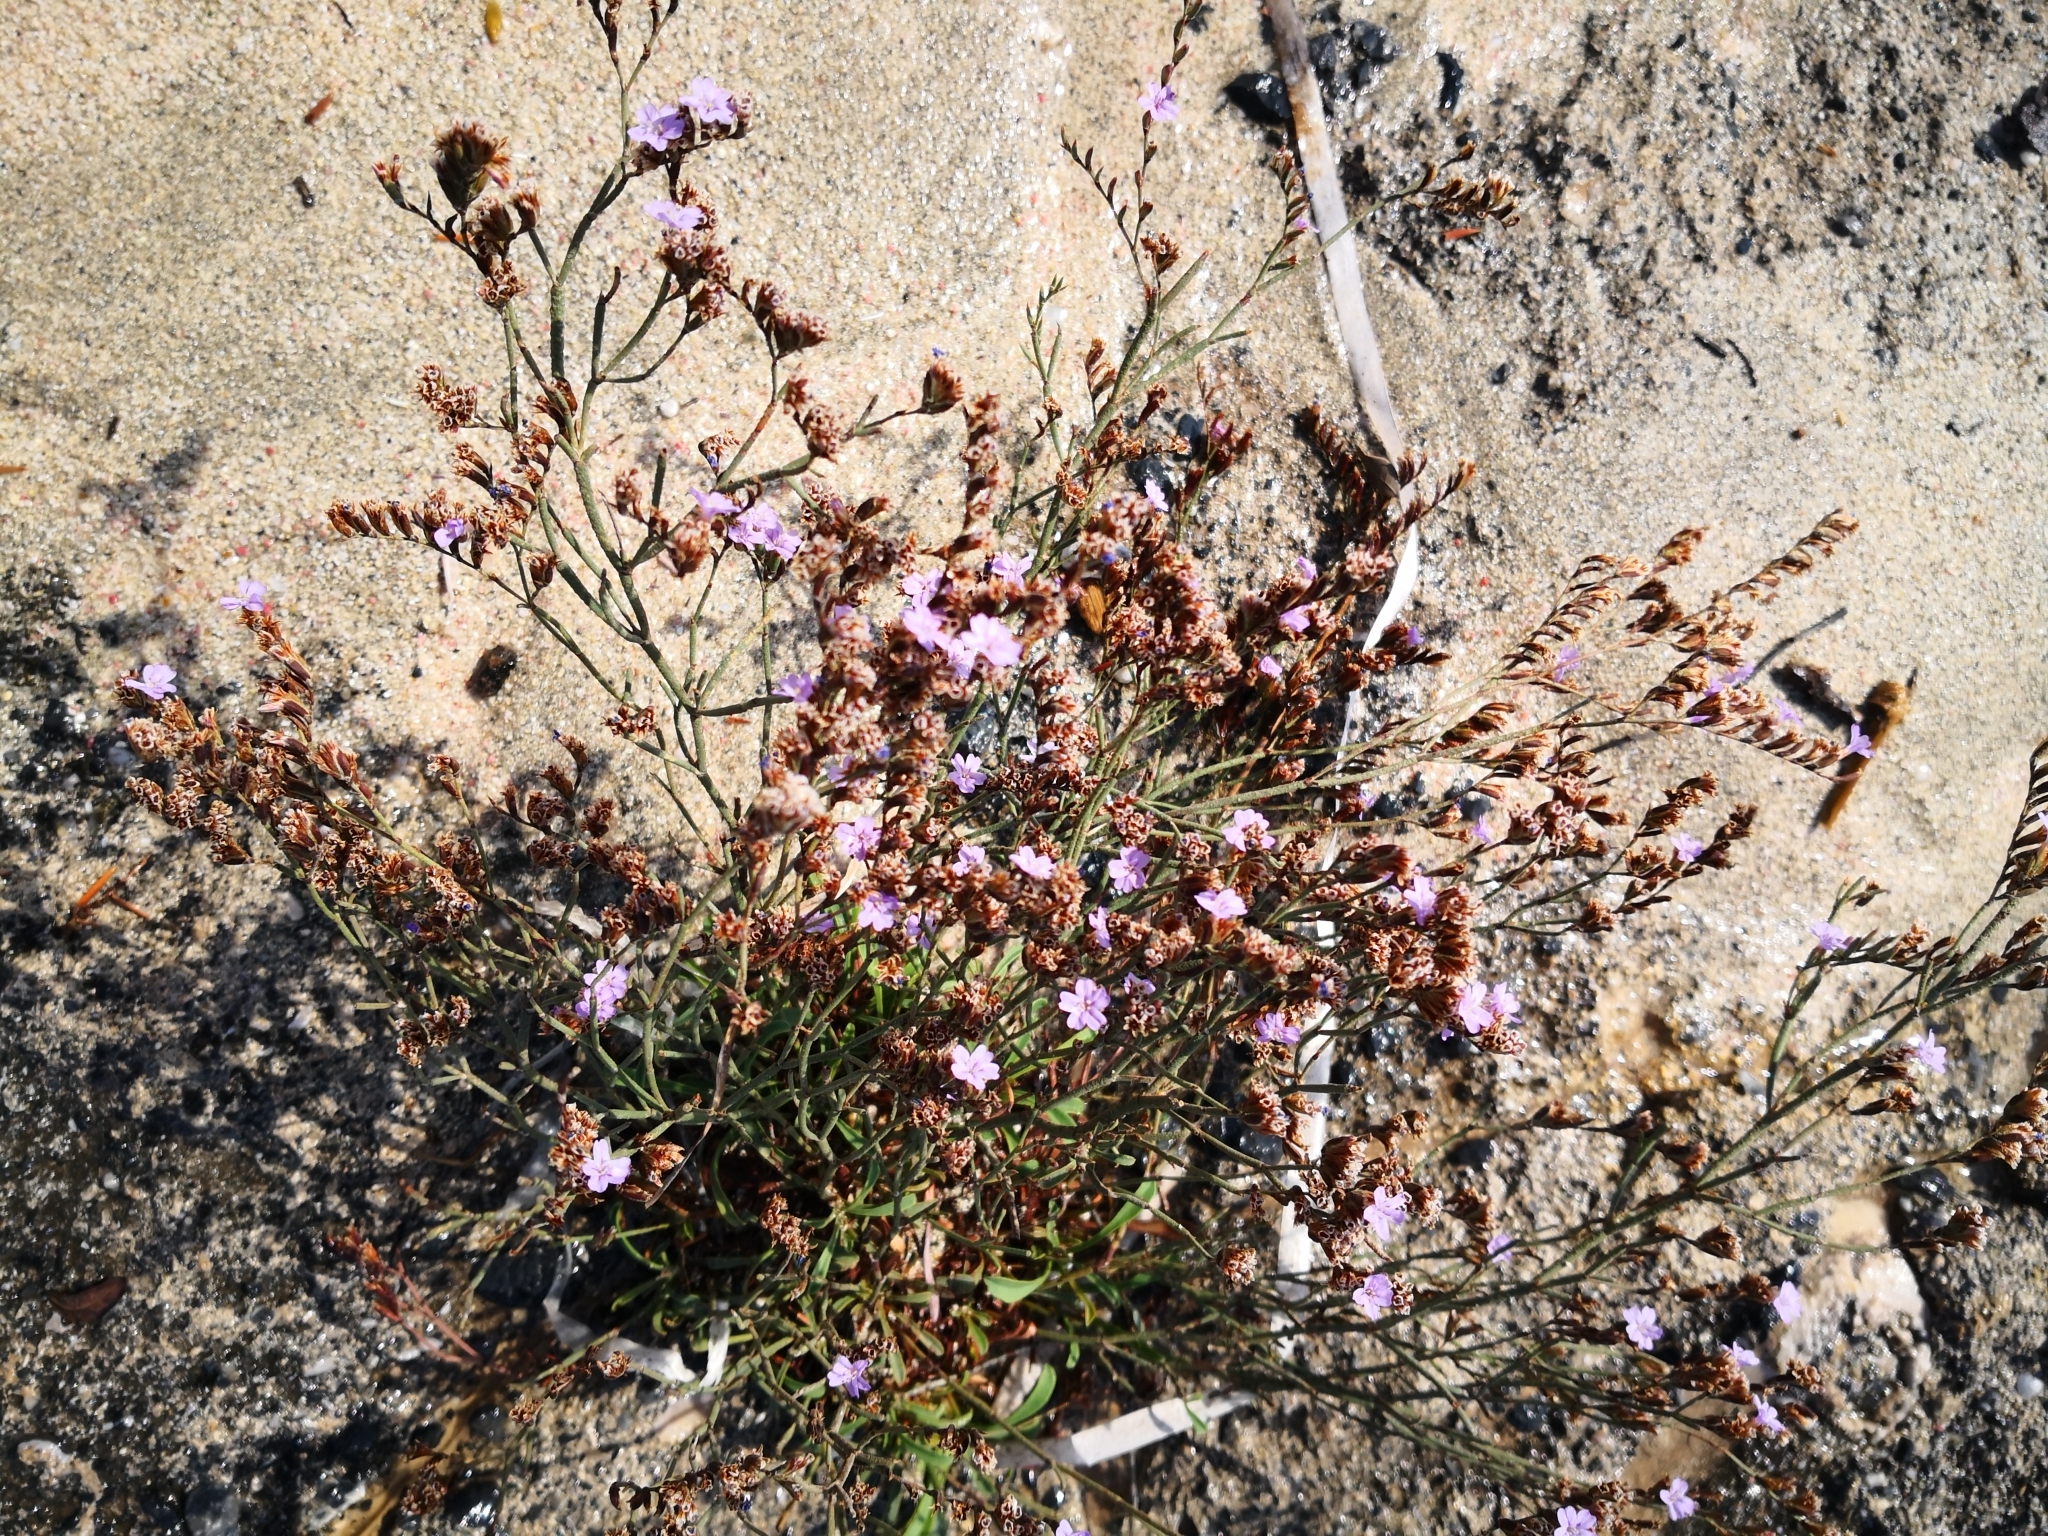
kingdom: Plantae
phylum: Tracheophyta
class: Magnoliopsida
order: Caryophyllales
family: Plumbaginaceae
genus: Limonium
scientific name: Limonium elaphonisicum
